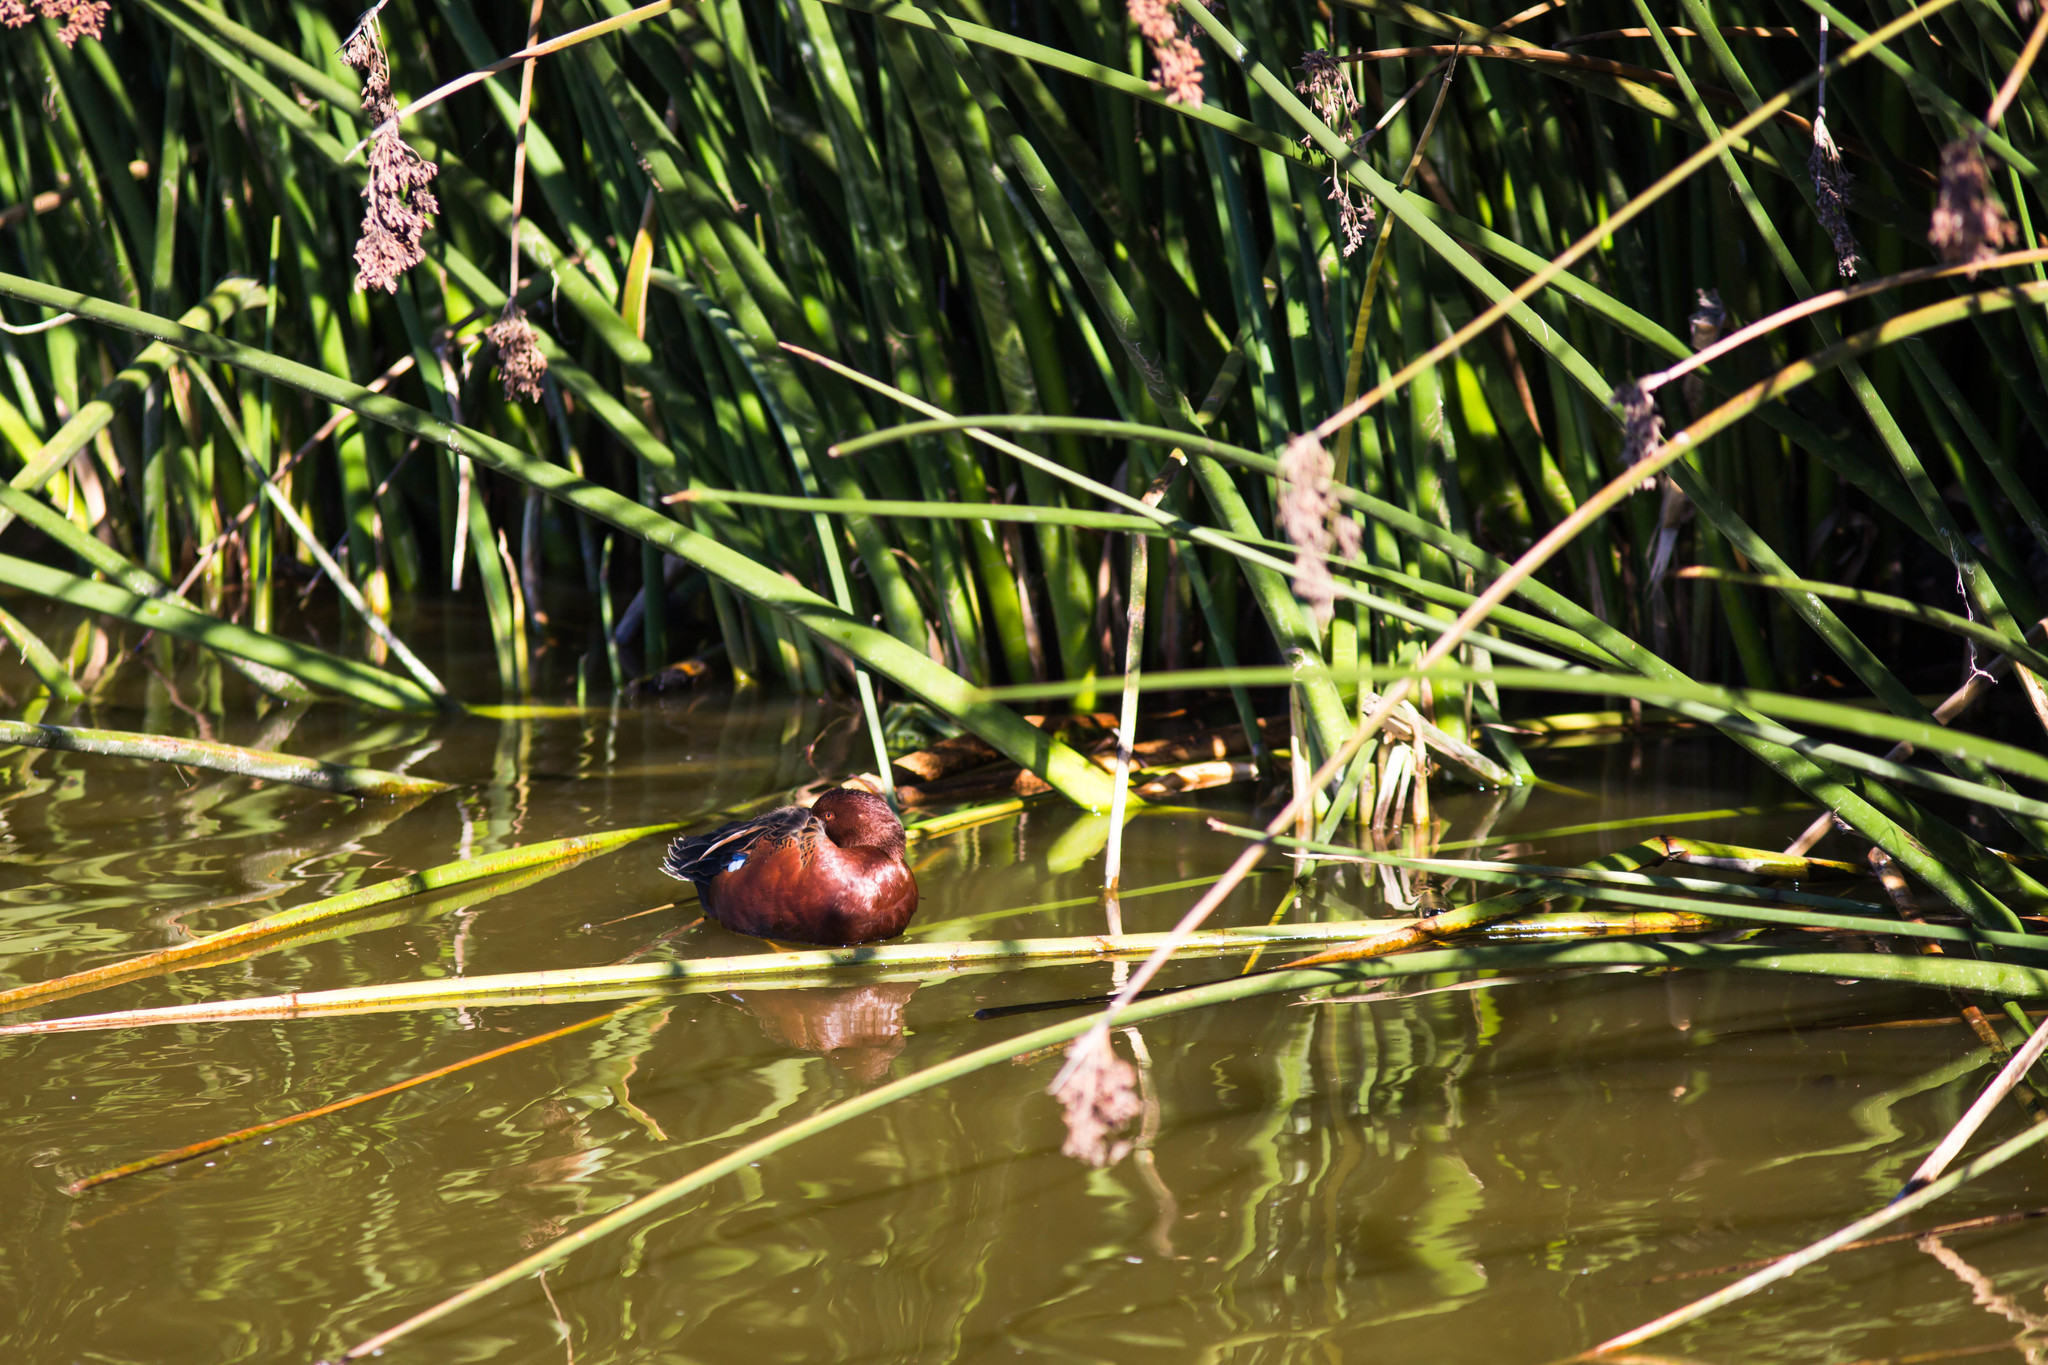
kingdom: Animalia
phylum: Chordata
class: Aves
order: Anseriformes
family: Anatidae
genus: Spatula
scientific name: Spatula cyanoptera
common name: Cinnamon teal
